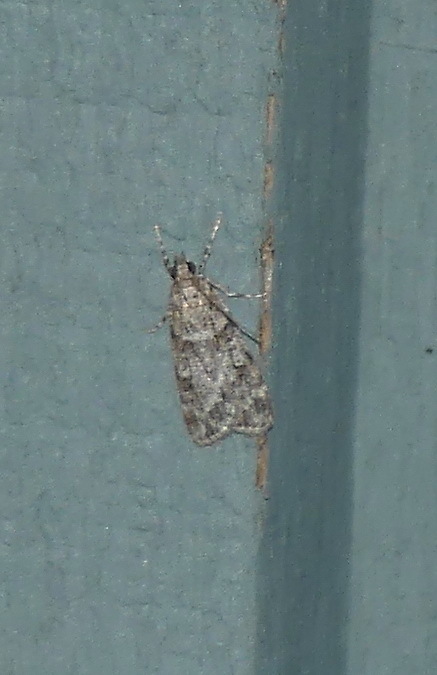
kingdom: Animalia
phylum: Arthropoda
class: Insecta
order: Lepidoptera
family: Crambidae
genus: Scoparia
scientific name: Scoparia biplagialis
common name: Double-striped scoparia moth
